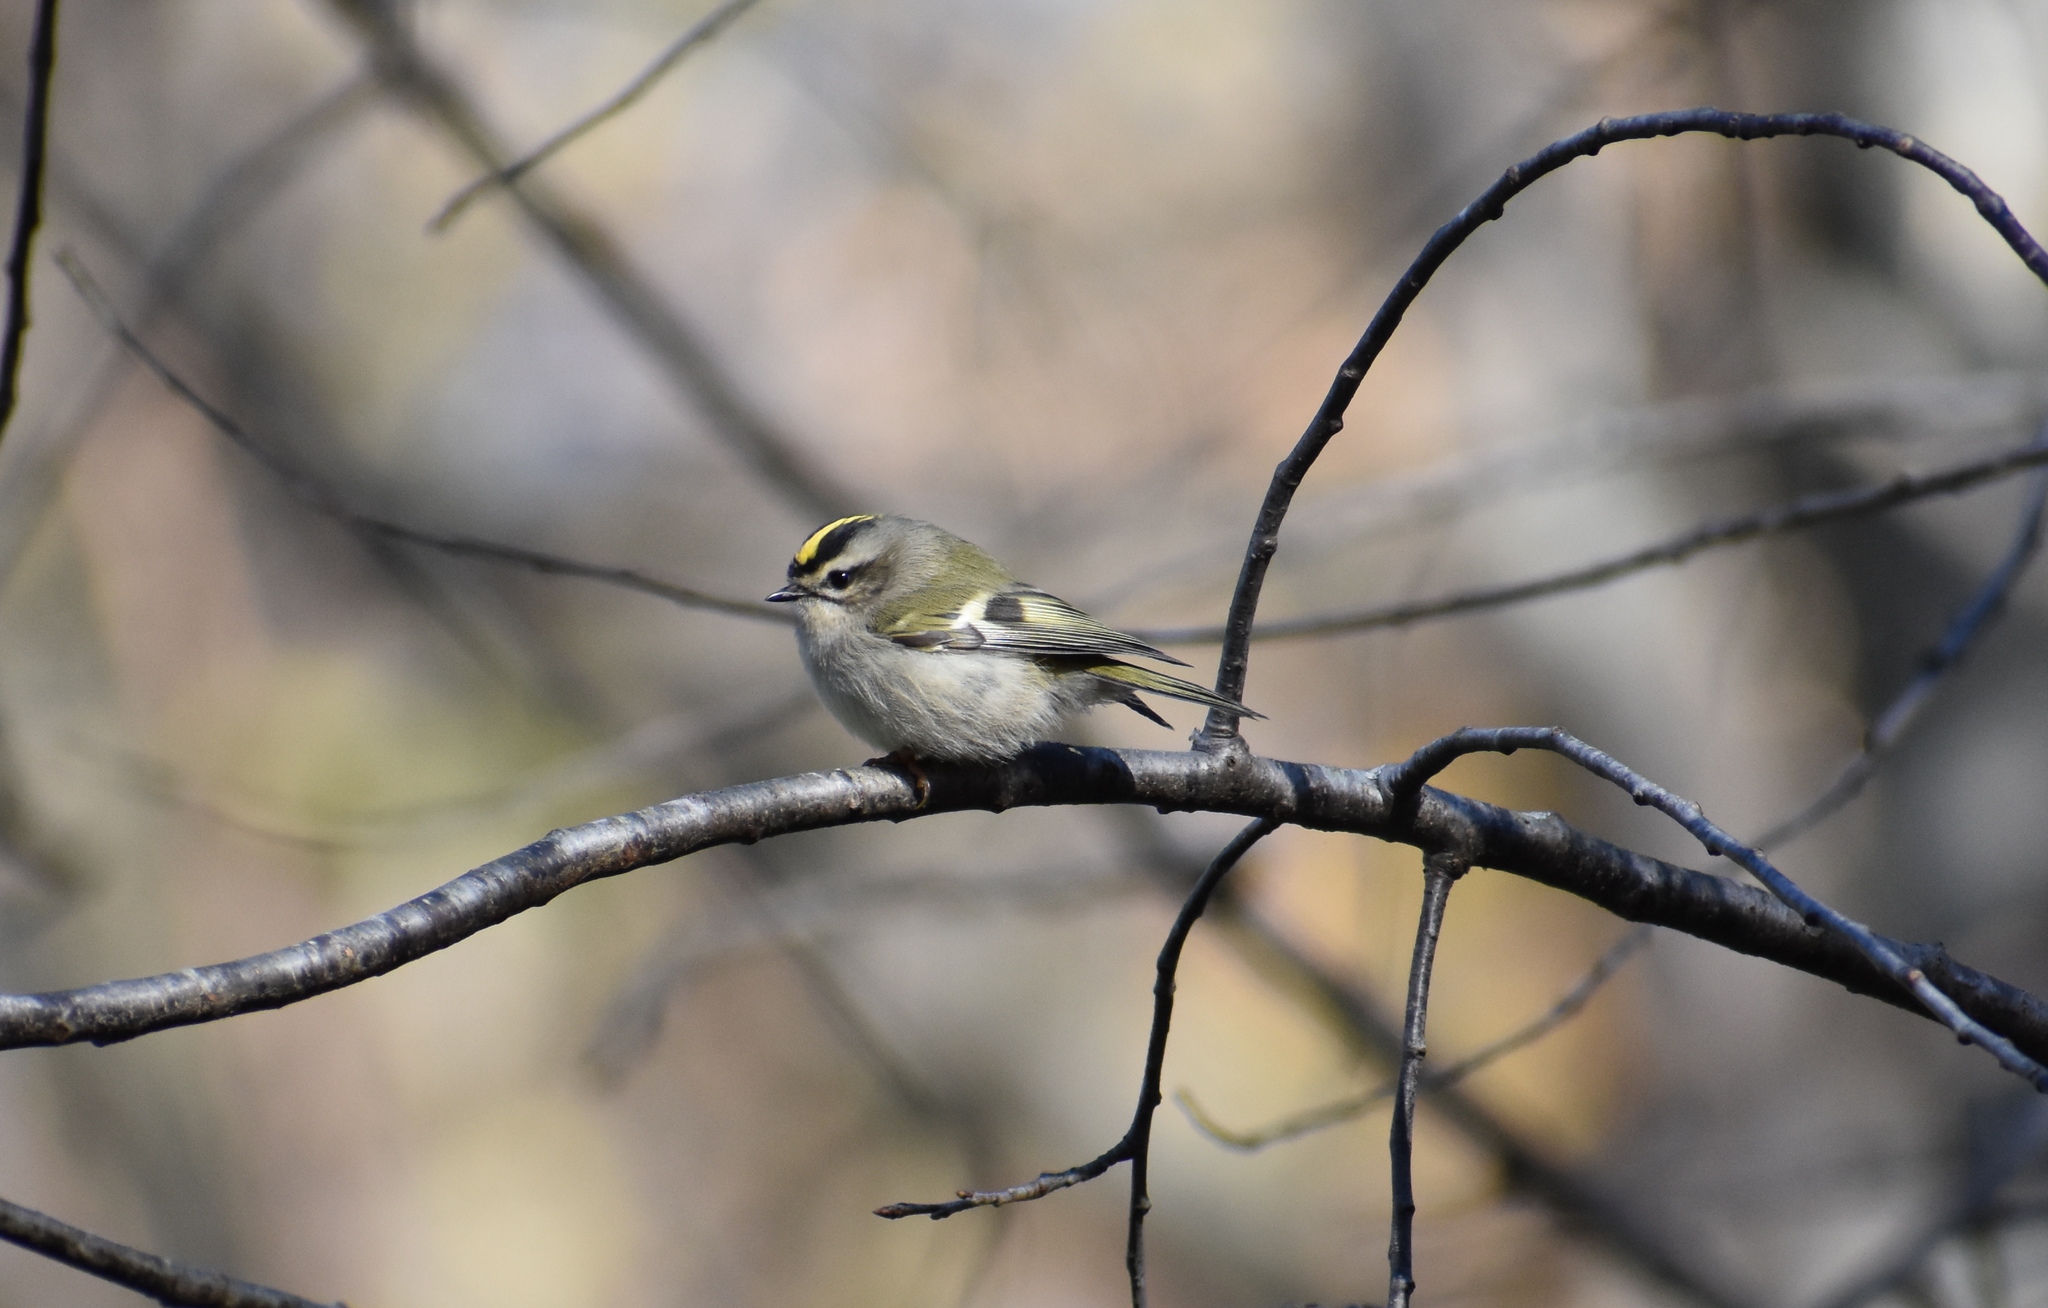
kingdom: Animalia
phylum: Chordata
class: Aves
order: Passeriformes
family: Regulidae
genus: Regulus
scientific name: Regulus satrapa
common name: Golden-crowned kinglet
